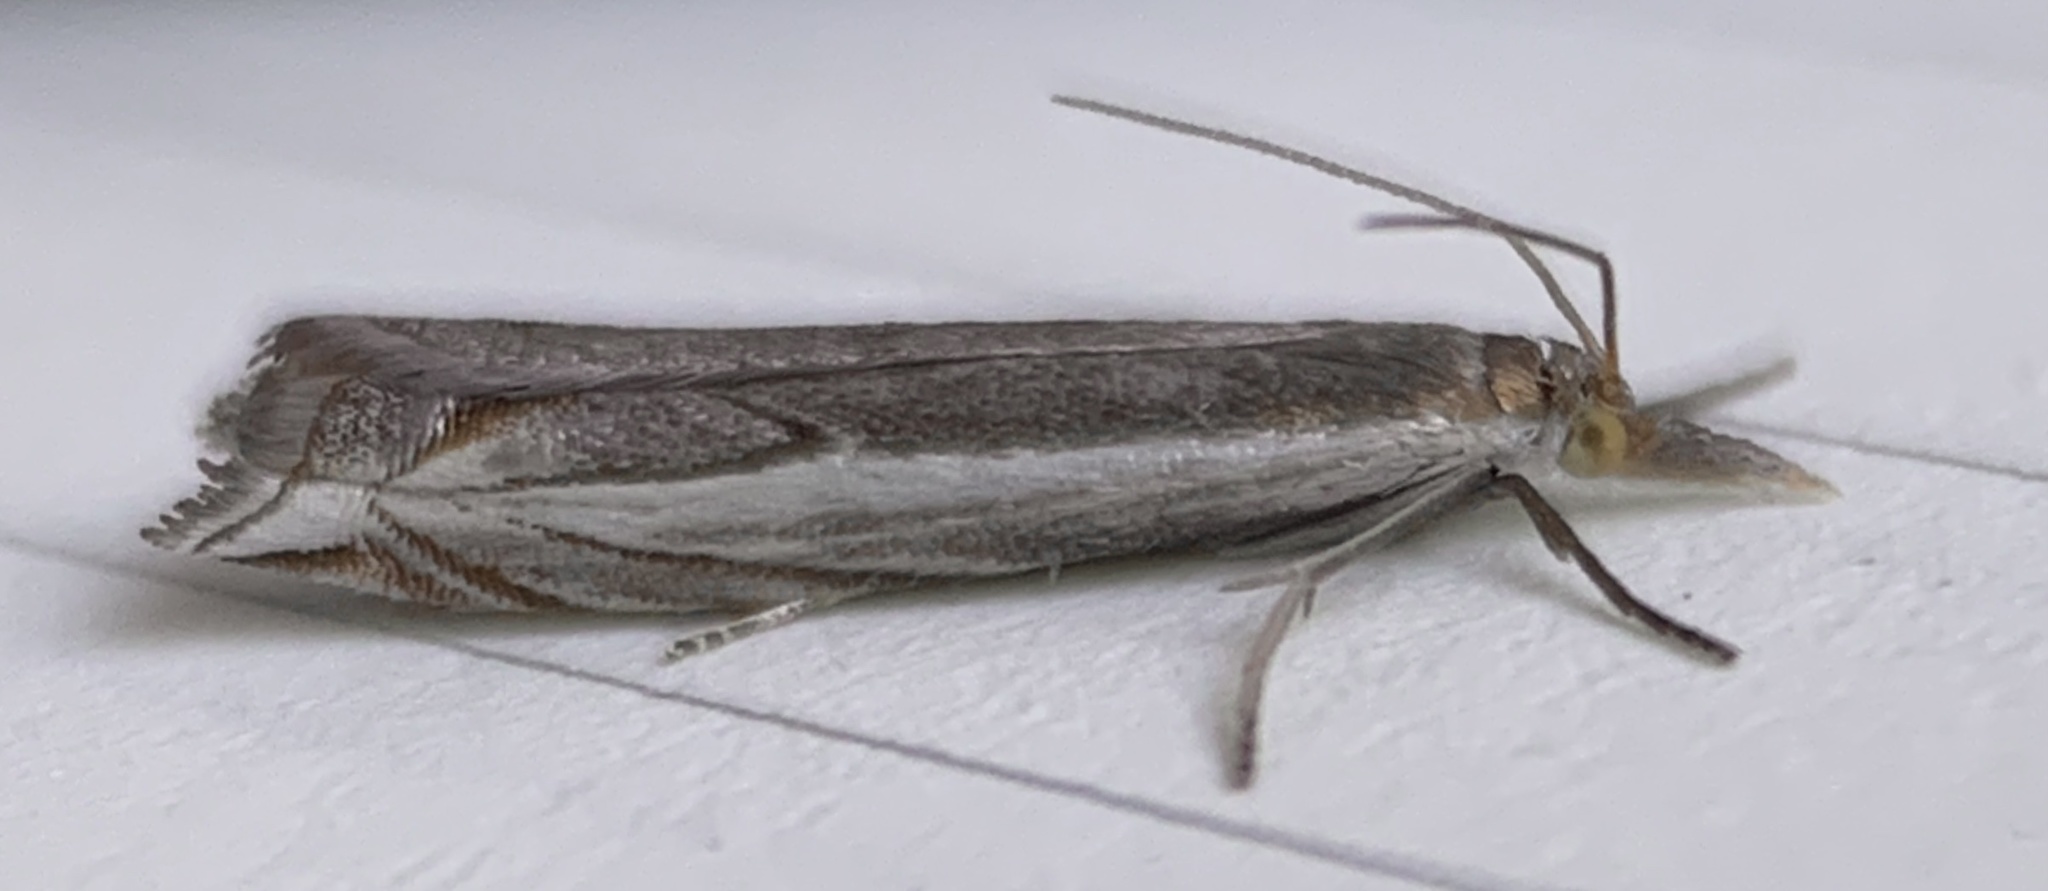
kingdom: Animalia
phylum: Arthropoda
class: Insecta
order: Lepidoptera
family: Crambidae
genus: Raphiptera
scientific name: Raphiptera argillaceellus
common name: Diminutive grass-veneer
